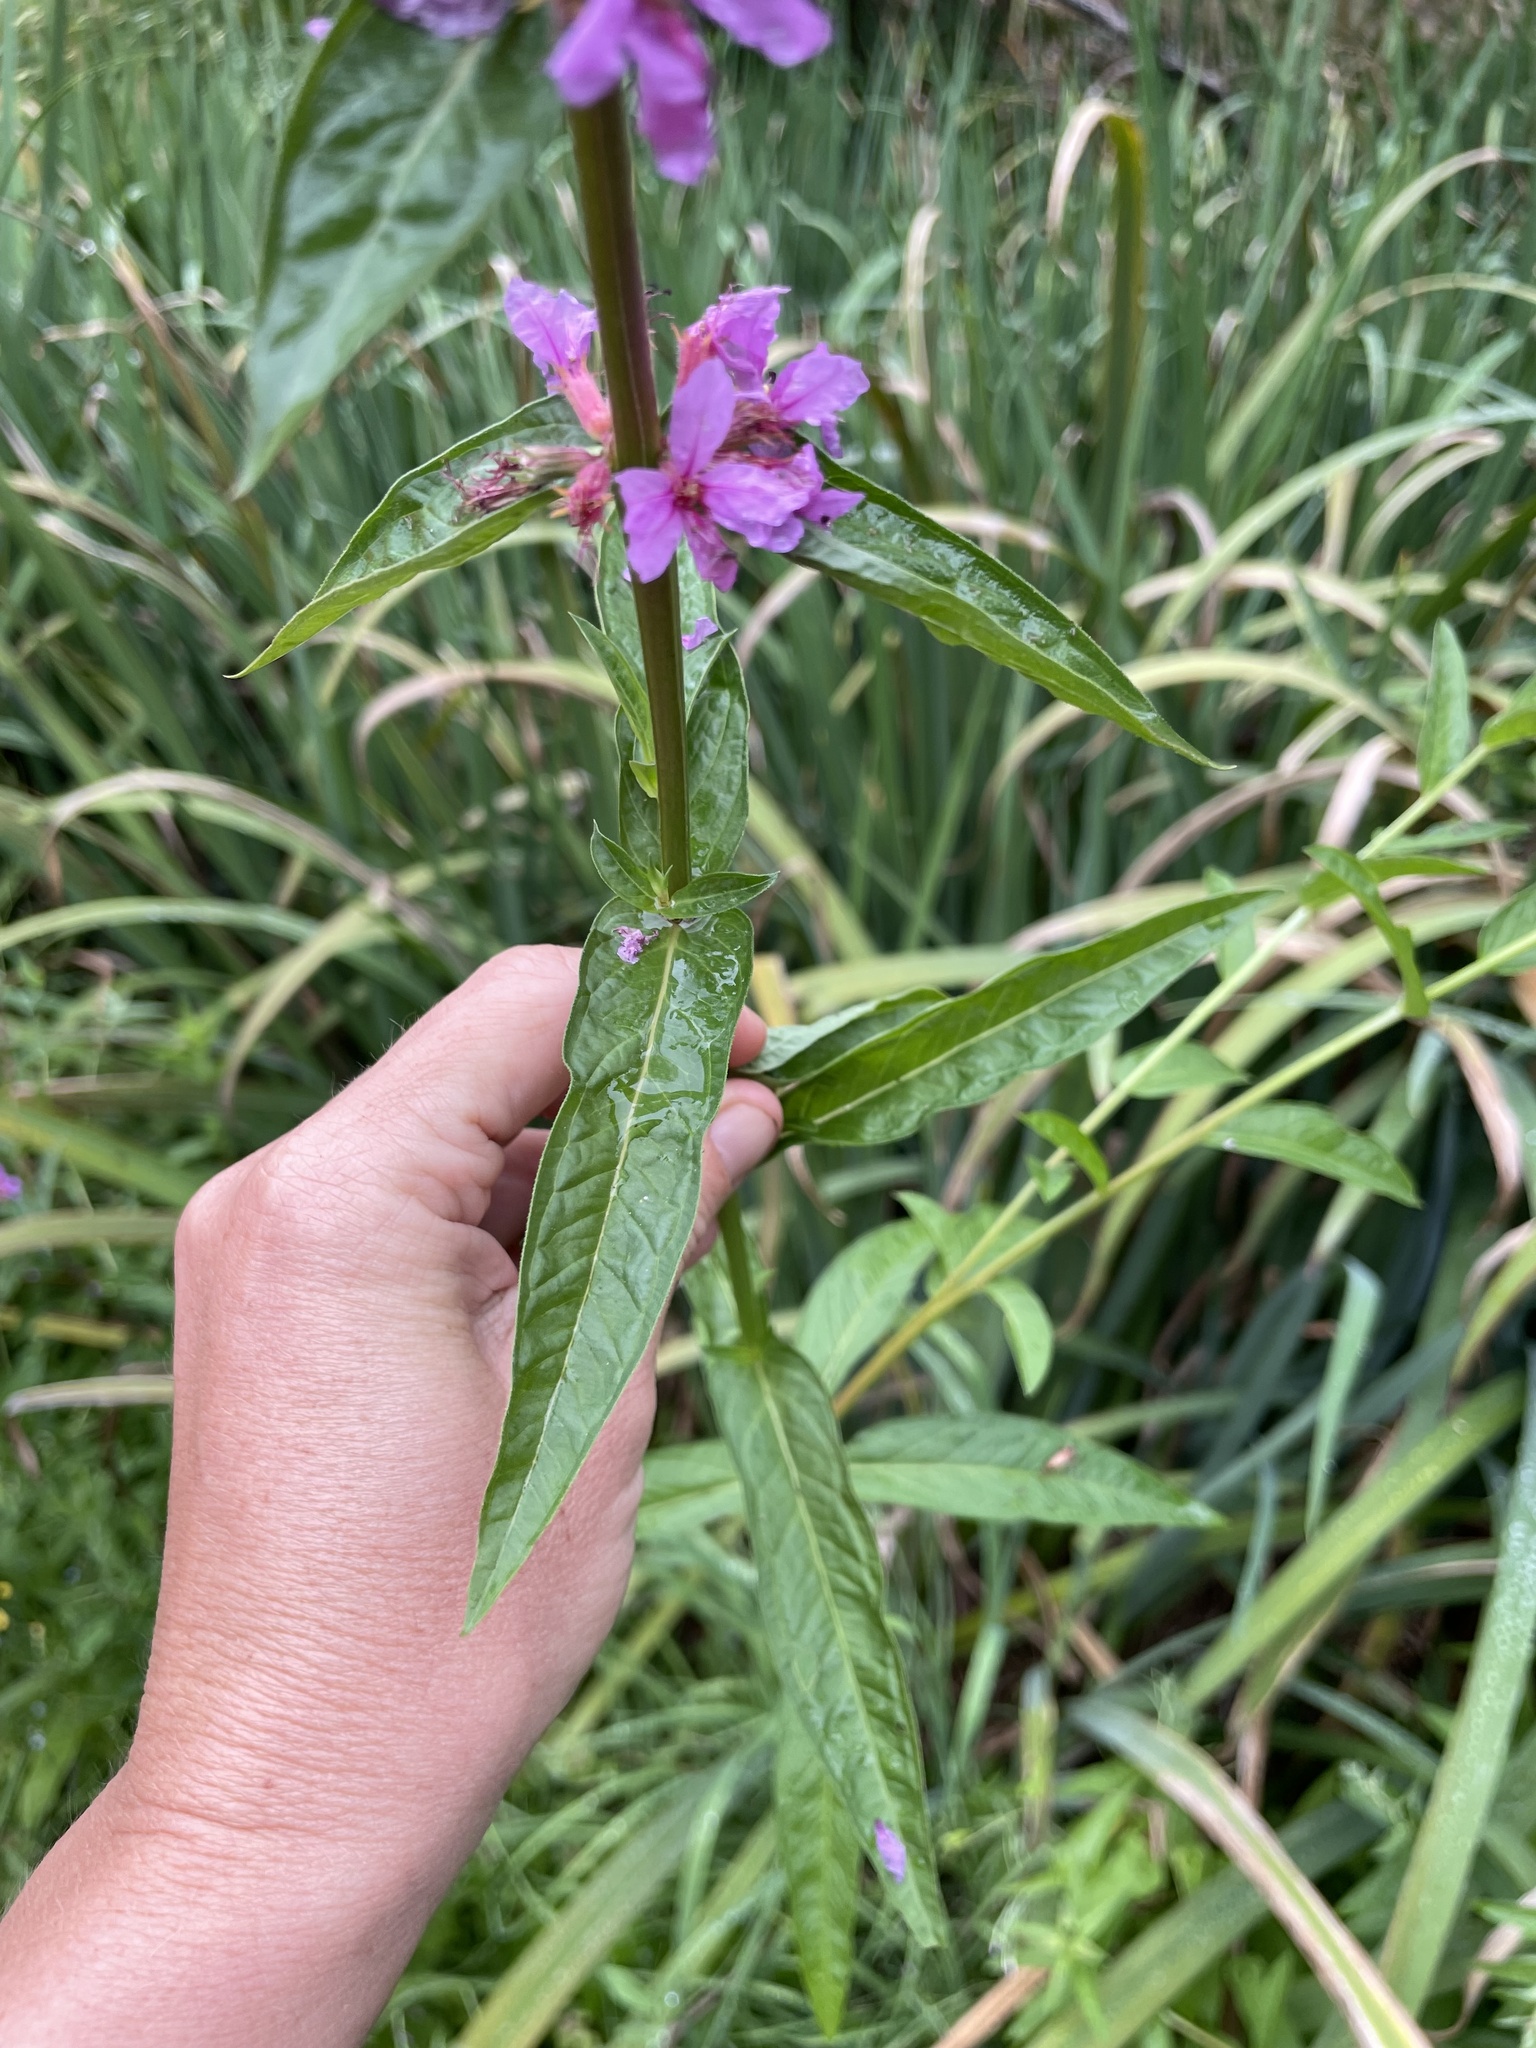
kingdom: Plantae
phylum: Tracheophyta
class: Magnoliopsida
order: Myrtales
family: Lythraceae
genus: Lythrum
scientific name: Lythrum salicaria
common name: Purple loosestrife
